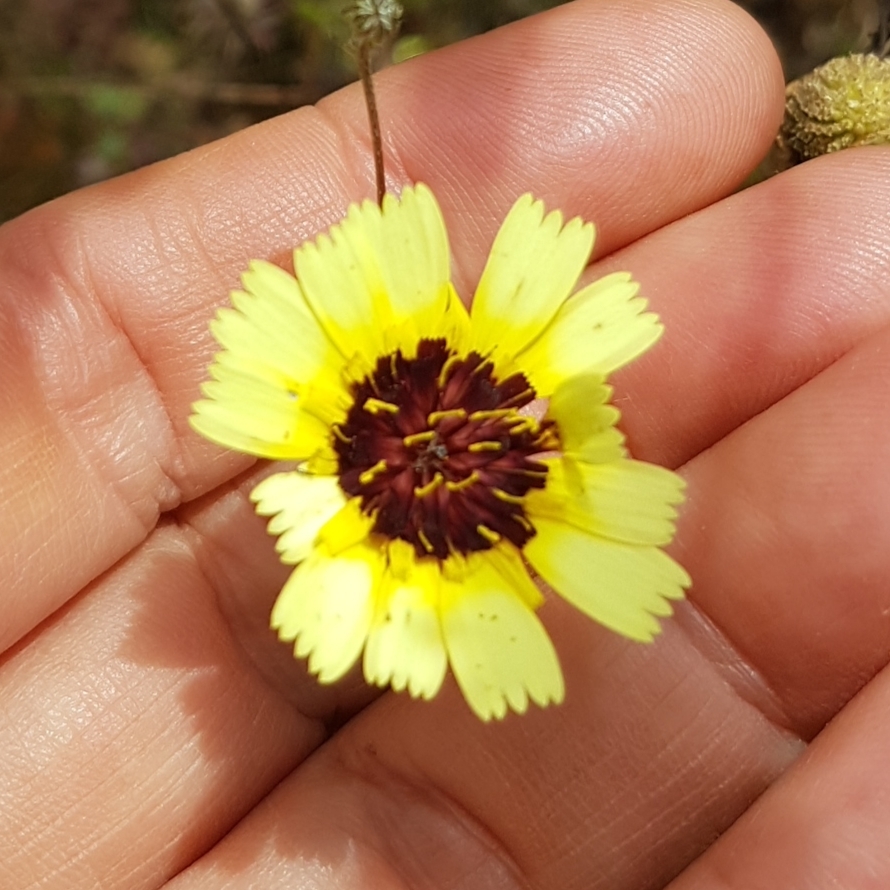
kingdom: Plantae
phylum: Tracheophyta
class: Magnoliopsida
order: Asterales
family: Asteraceae
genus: Tolpis
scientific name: Tolpis barbata
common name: Yellow hawkweed
